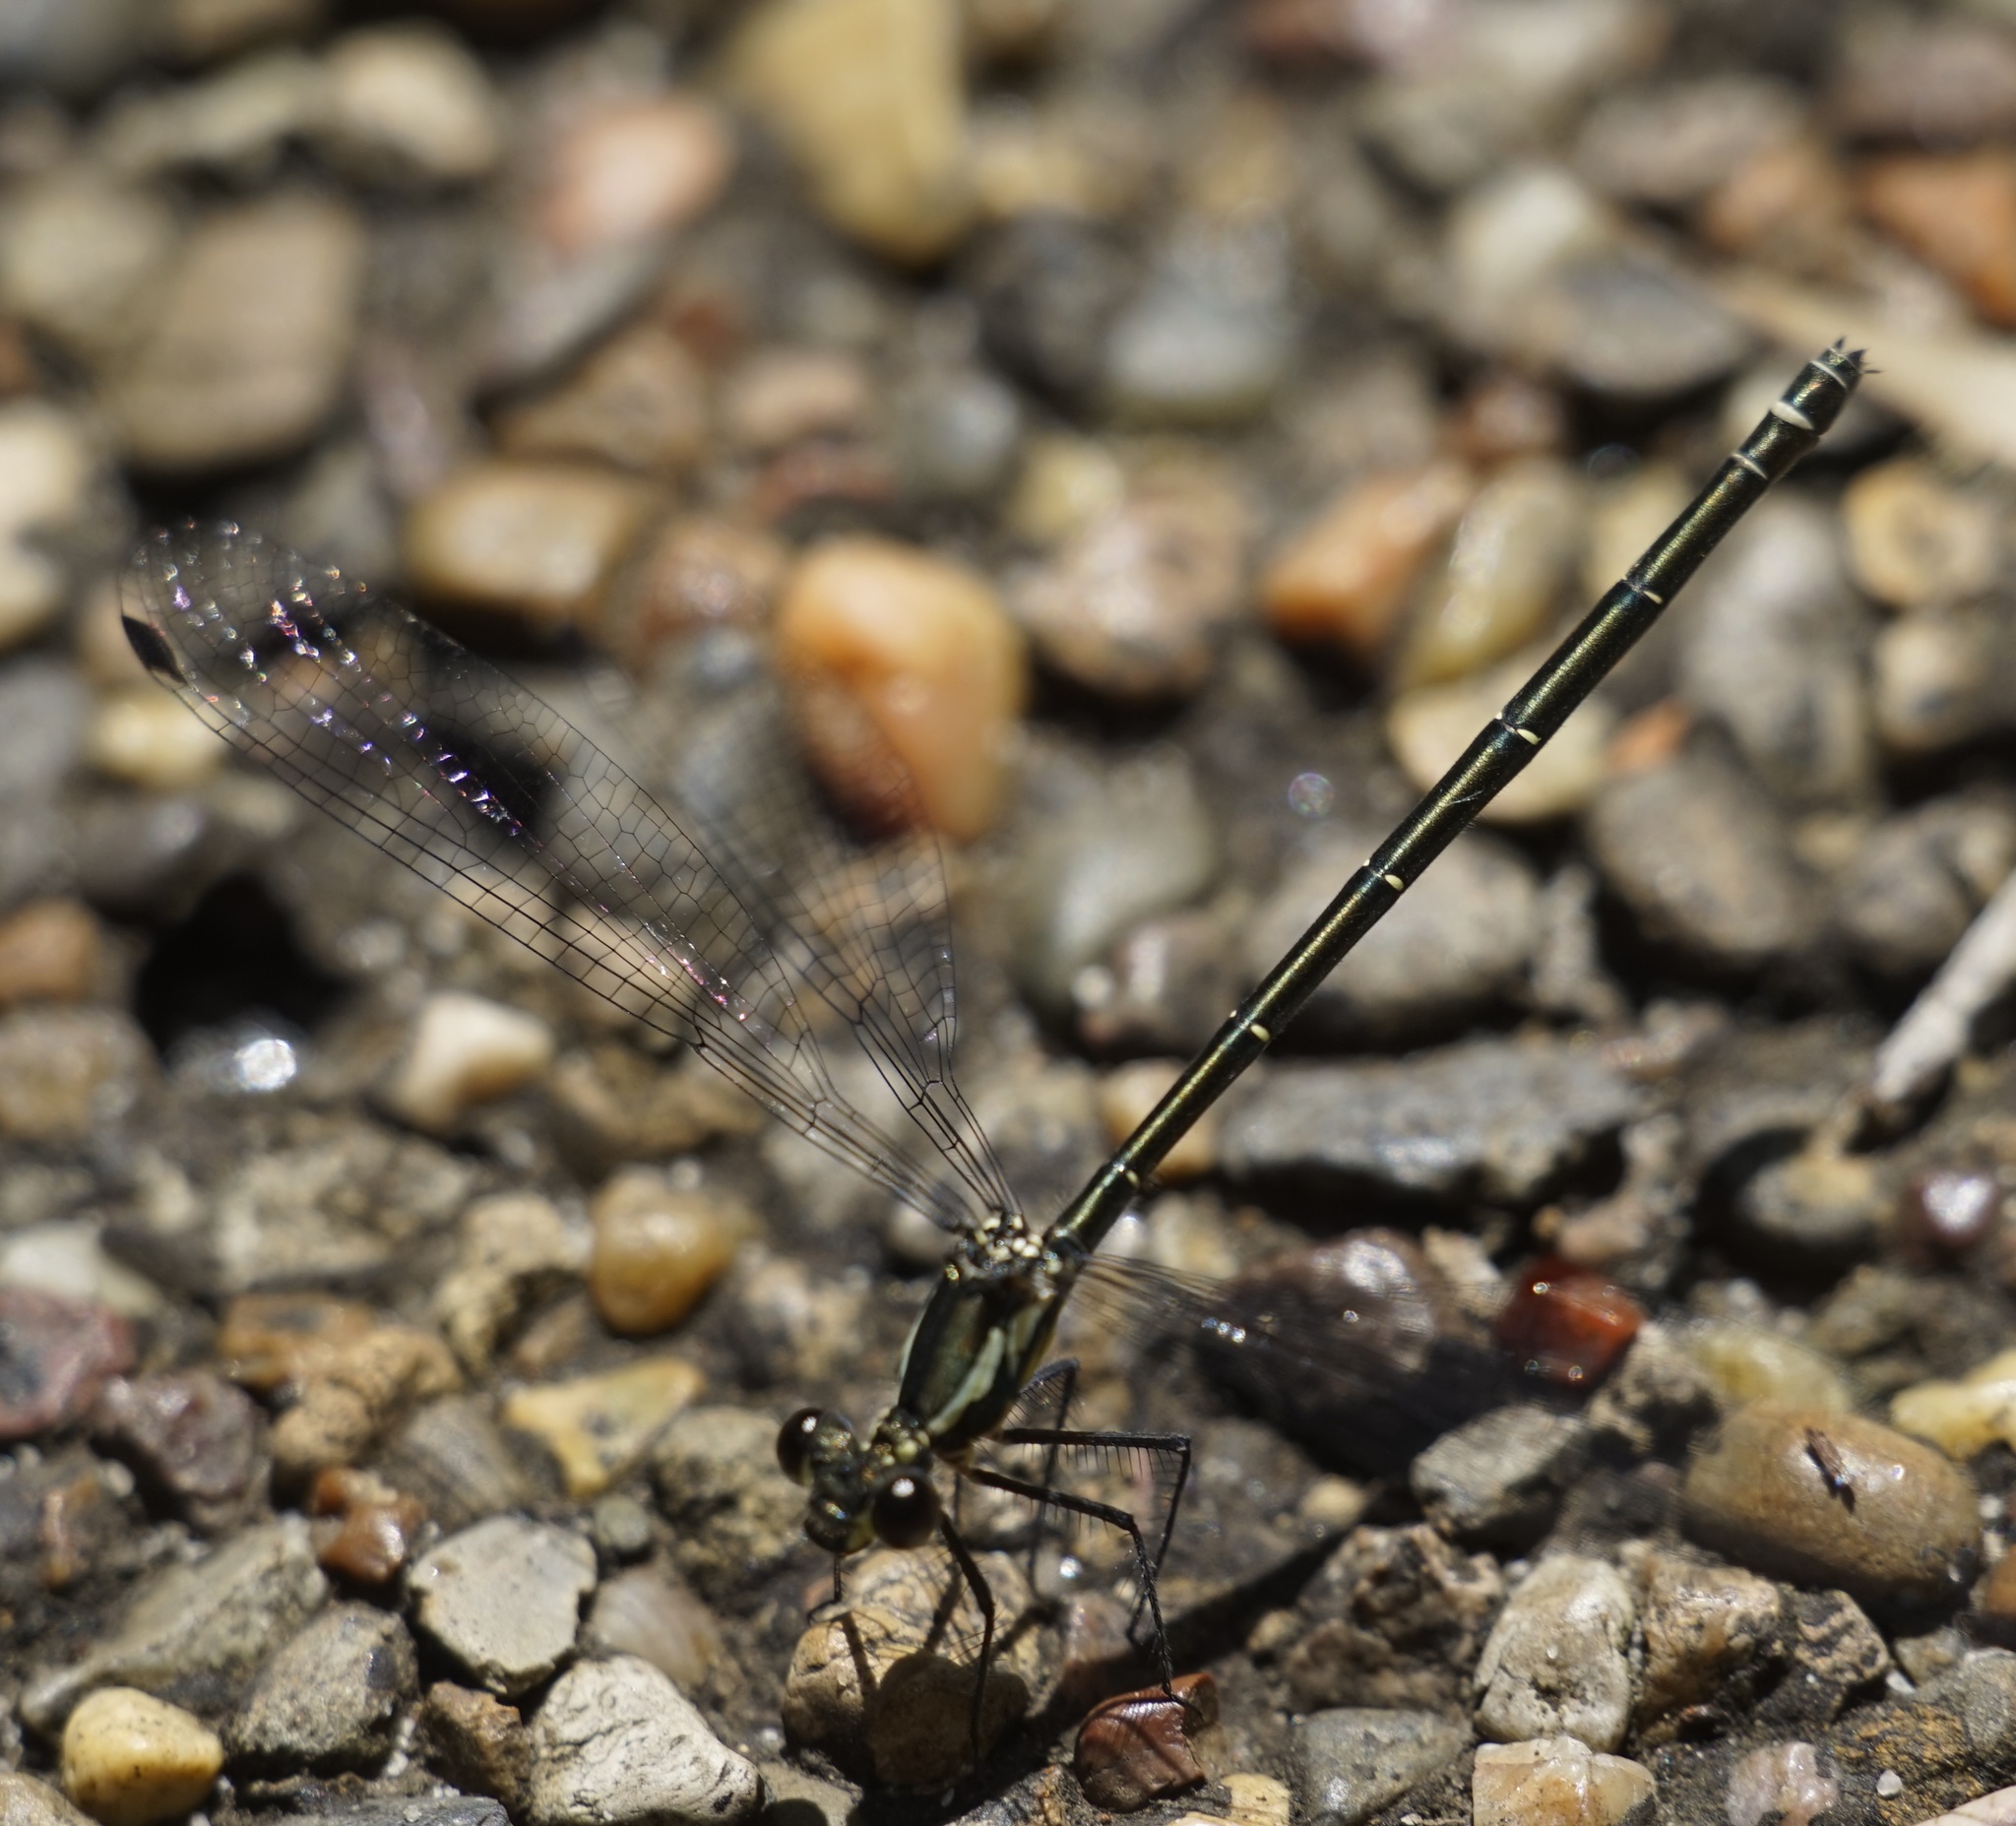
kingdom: Animalia
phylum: Arthropoda
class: Insecta
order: Odonata
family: Argiolestidae
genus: Austroargiolestes
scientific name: Austroargiolestes icteromelas
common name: Common flatwing
